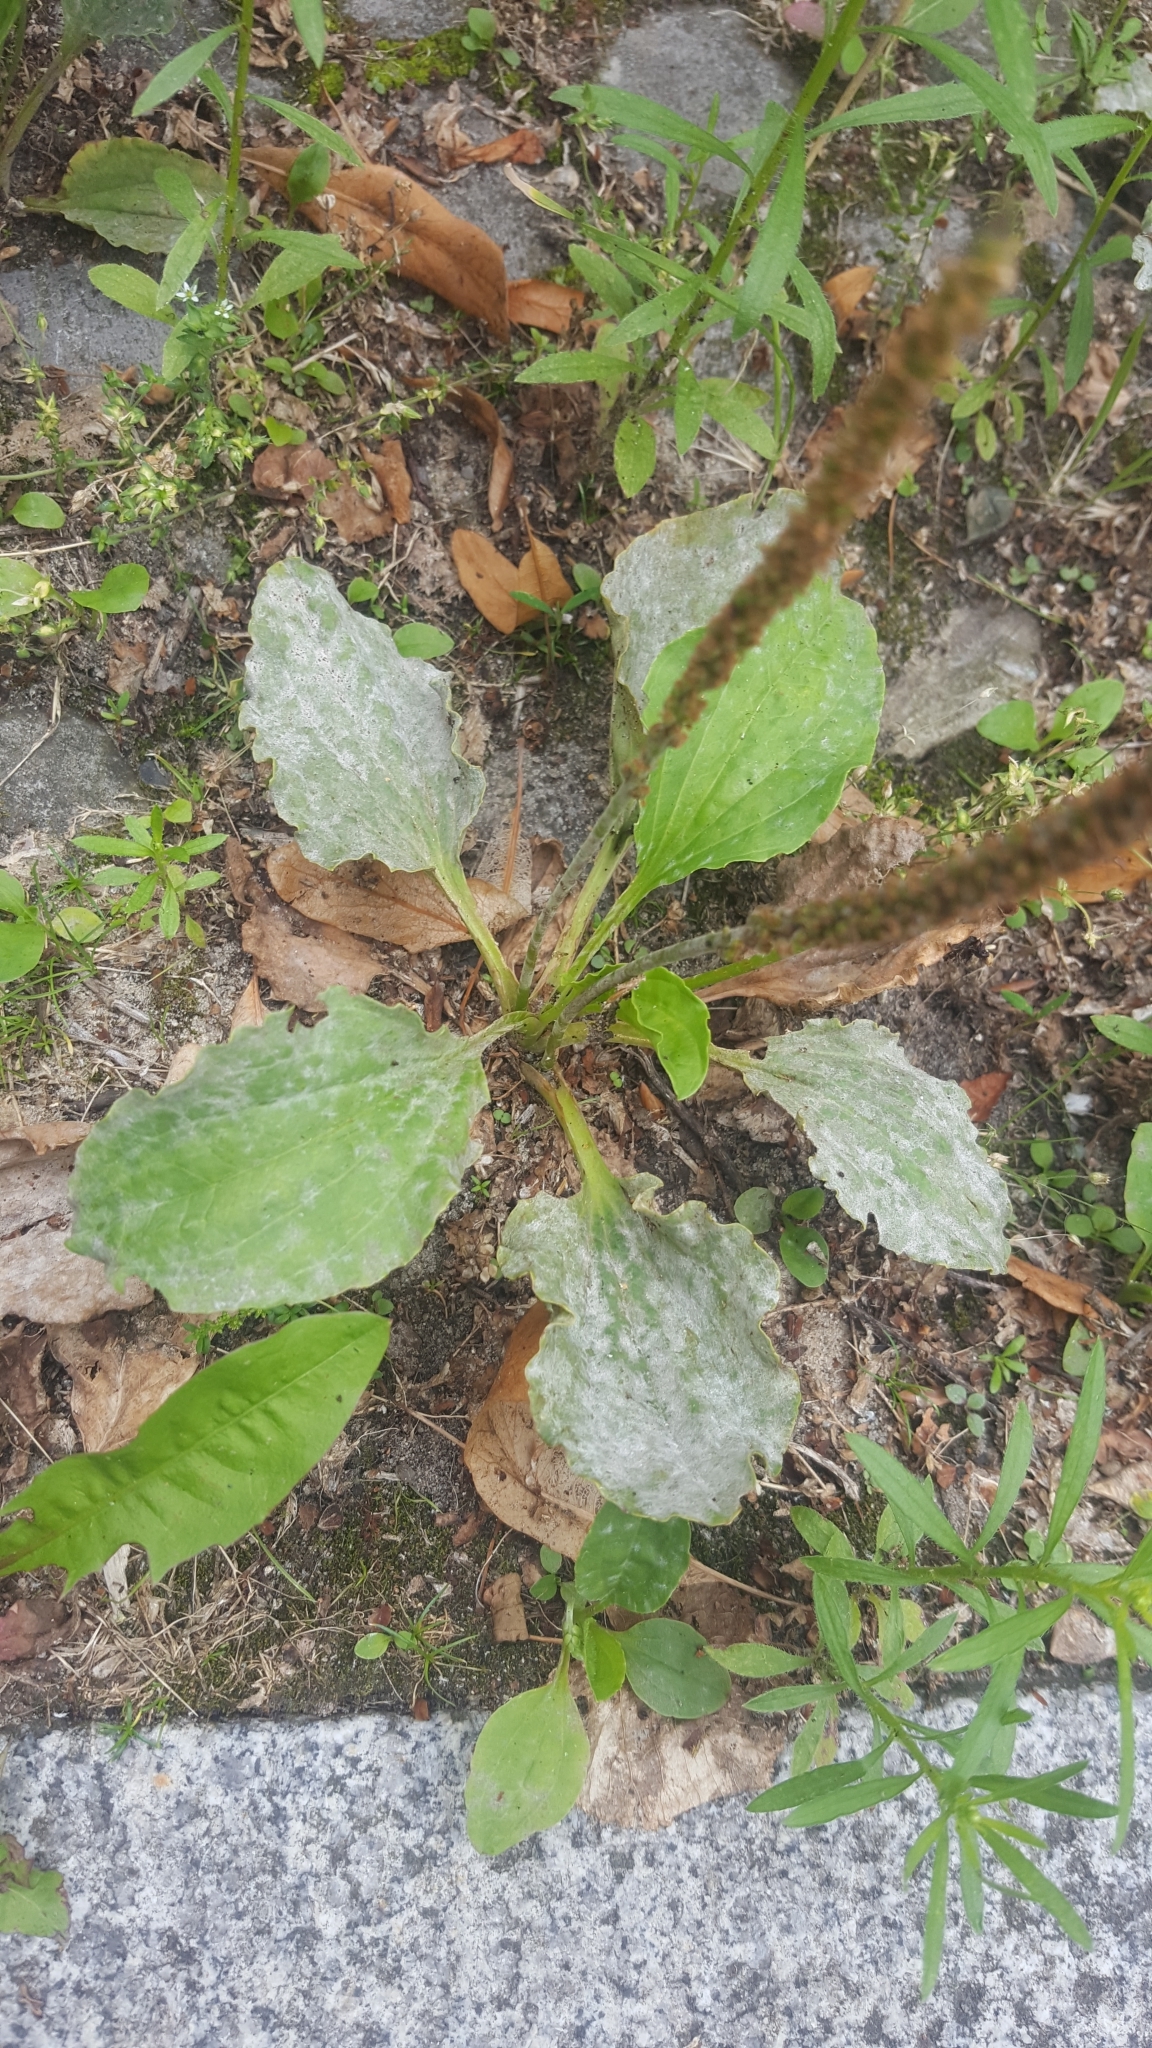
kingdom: Fungi
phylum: Ascomycota
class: Leotiomycetes
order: Helotiales
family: Erysiphaceae
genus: Golovinomyces
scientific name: Golovinomyces sordidus
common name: Plantain mildew
